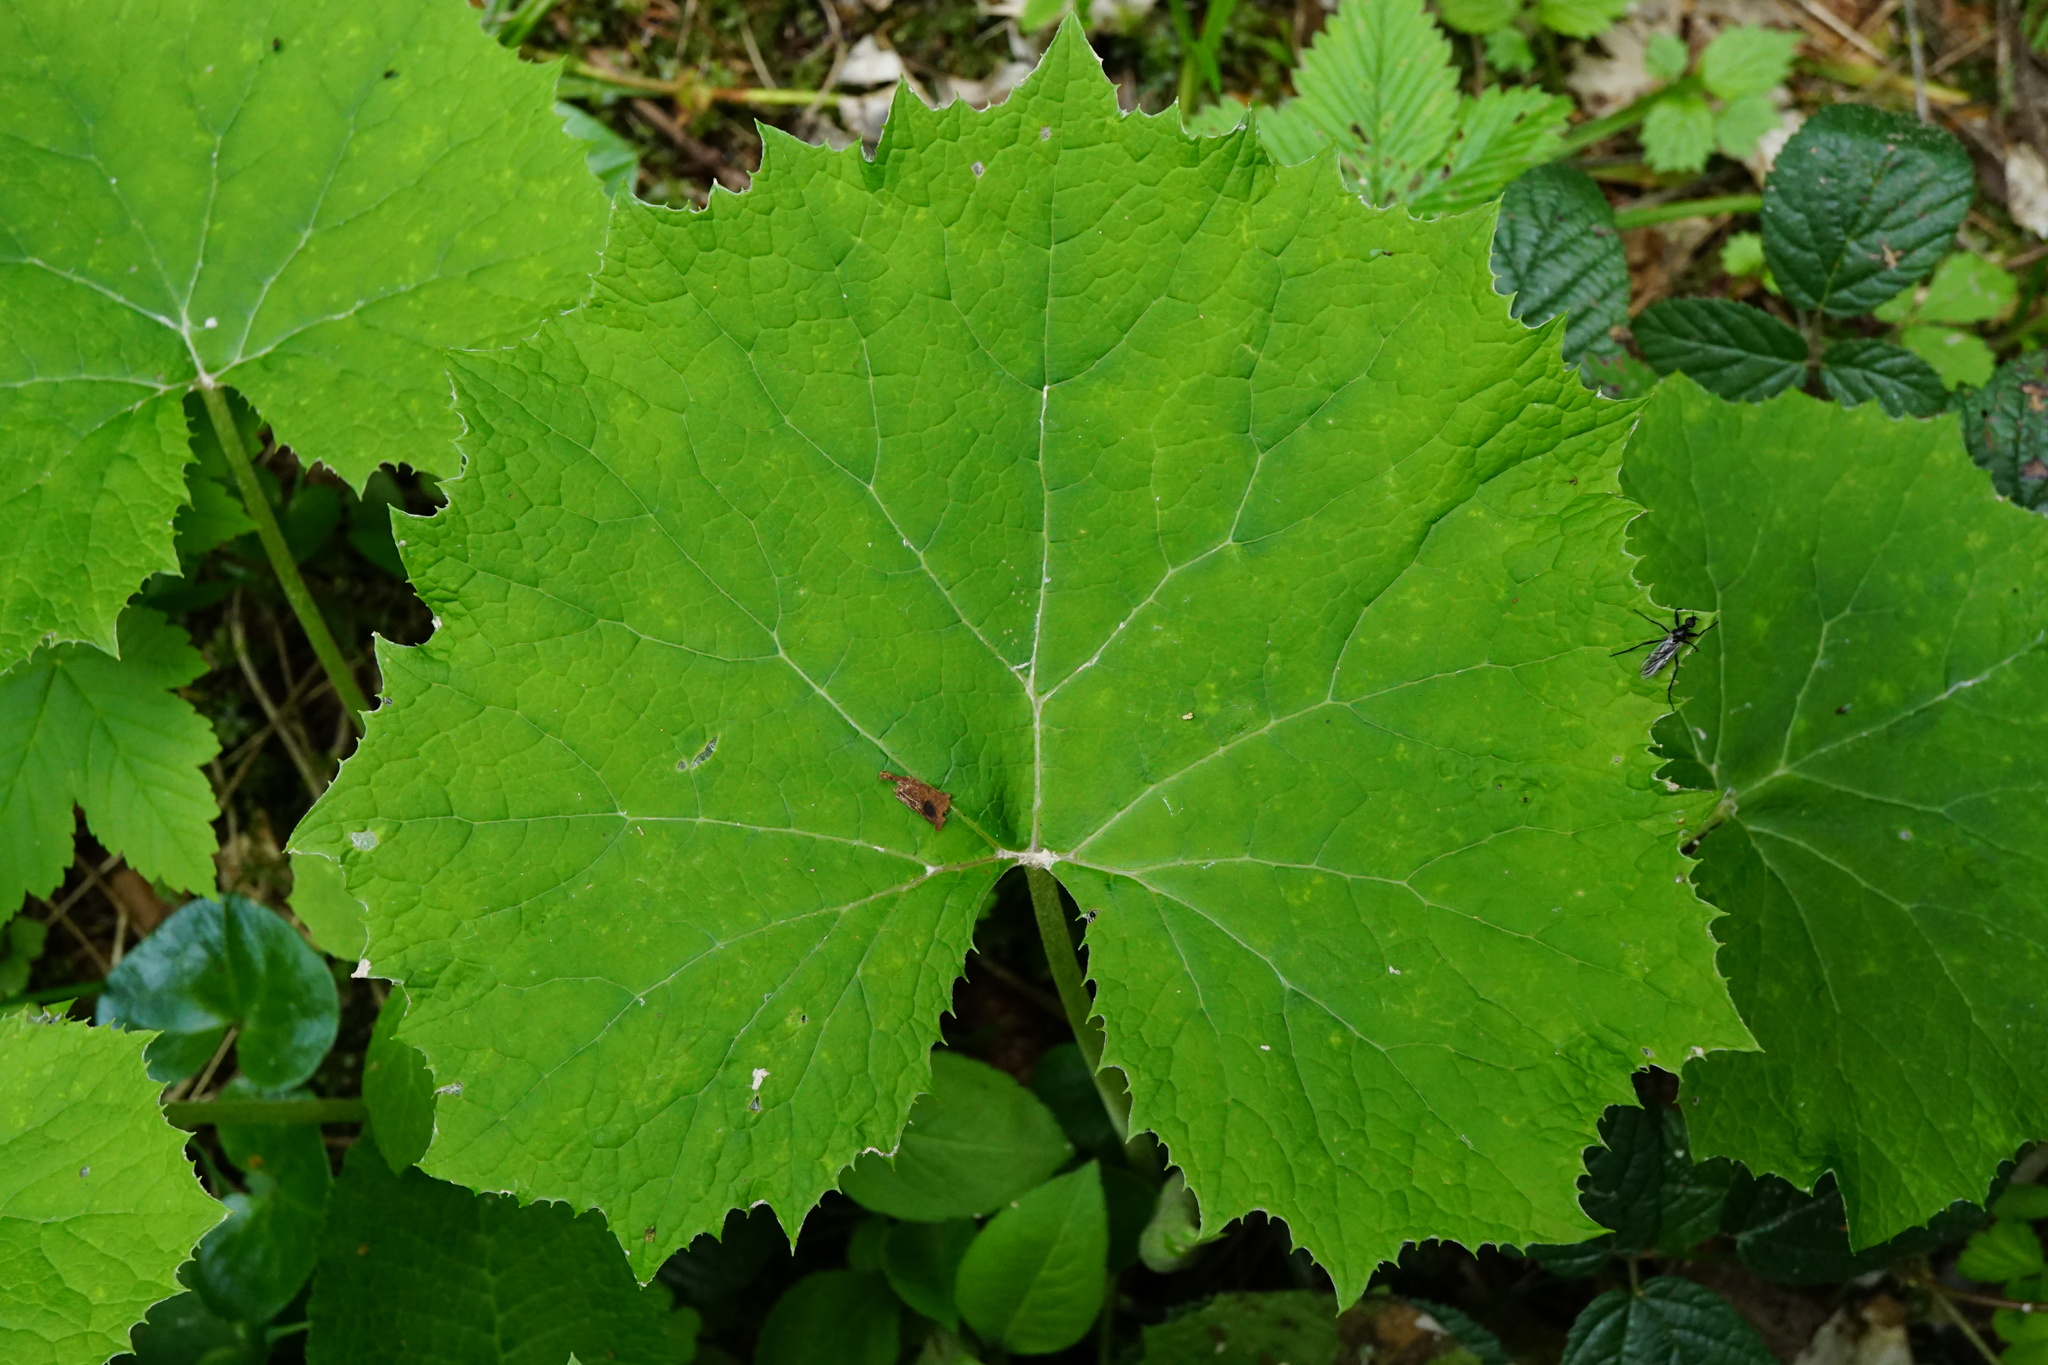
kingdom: Plantae
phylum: Tracheophyta
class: Magnoliopsida
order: Asterales
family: Asteraceae
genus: Petasites
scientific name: Petasites albus
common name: White butterbur
